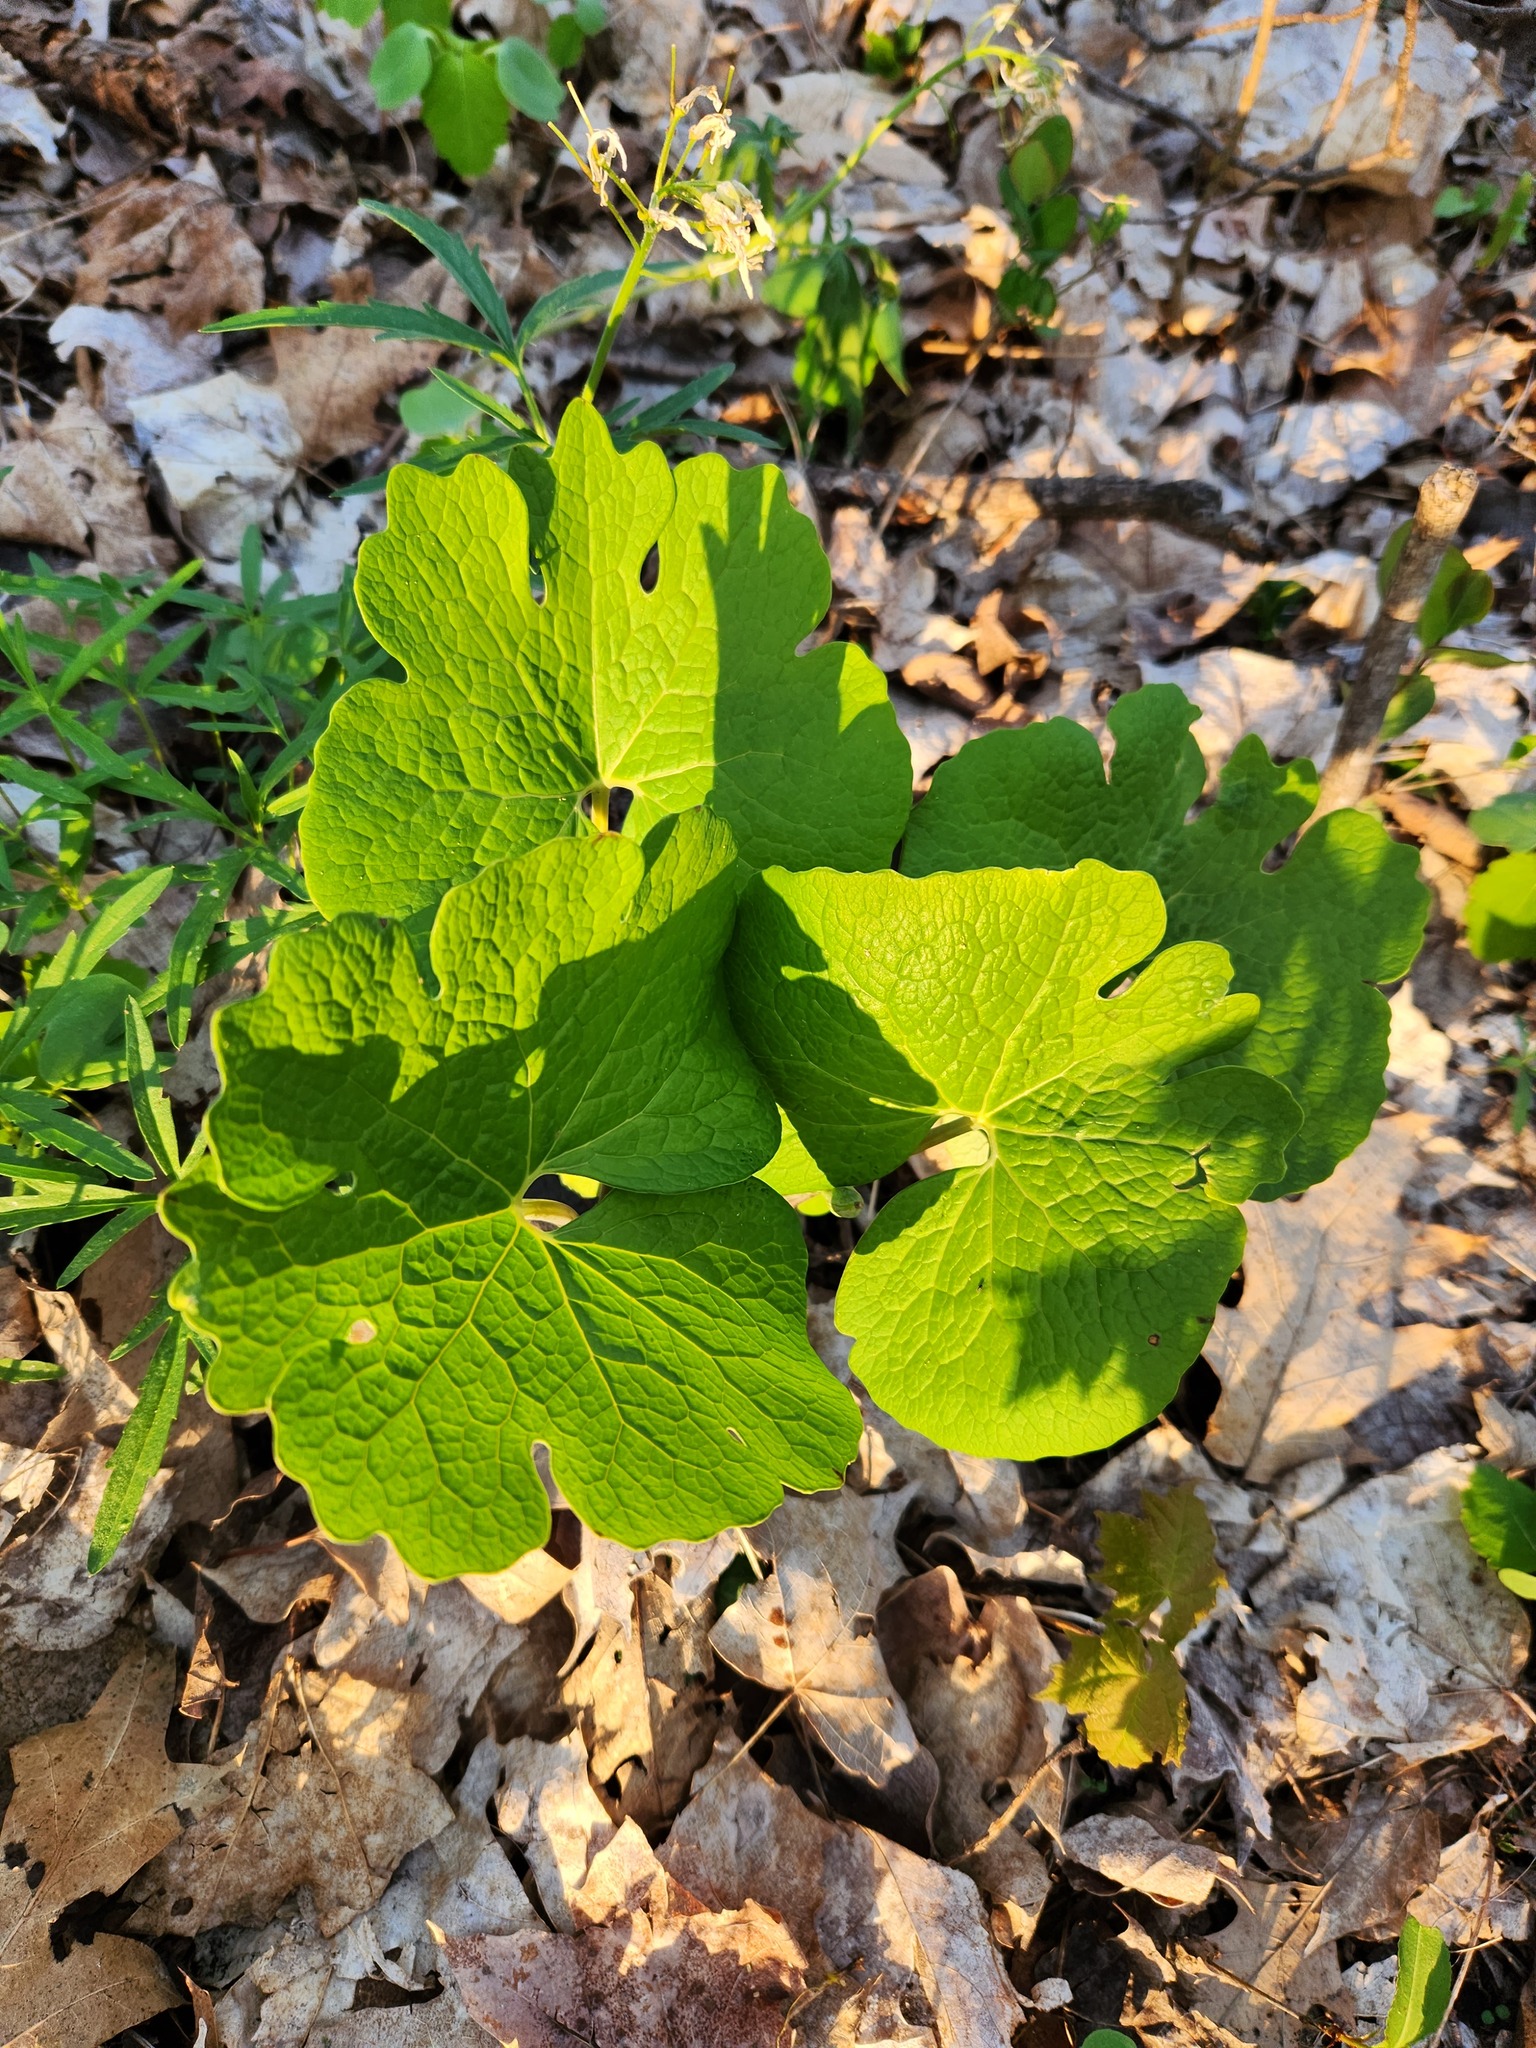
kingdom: Plantae
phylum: Tracheophyta
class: Magnoliopsida
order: Ranunculales
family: Papaveraceae
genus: Sanguinaria
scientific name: Sanguinaria canadensis
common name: Bloodroot
